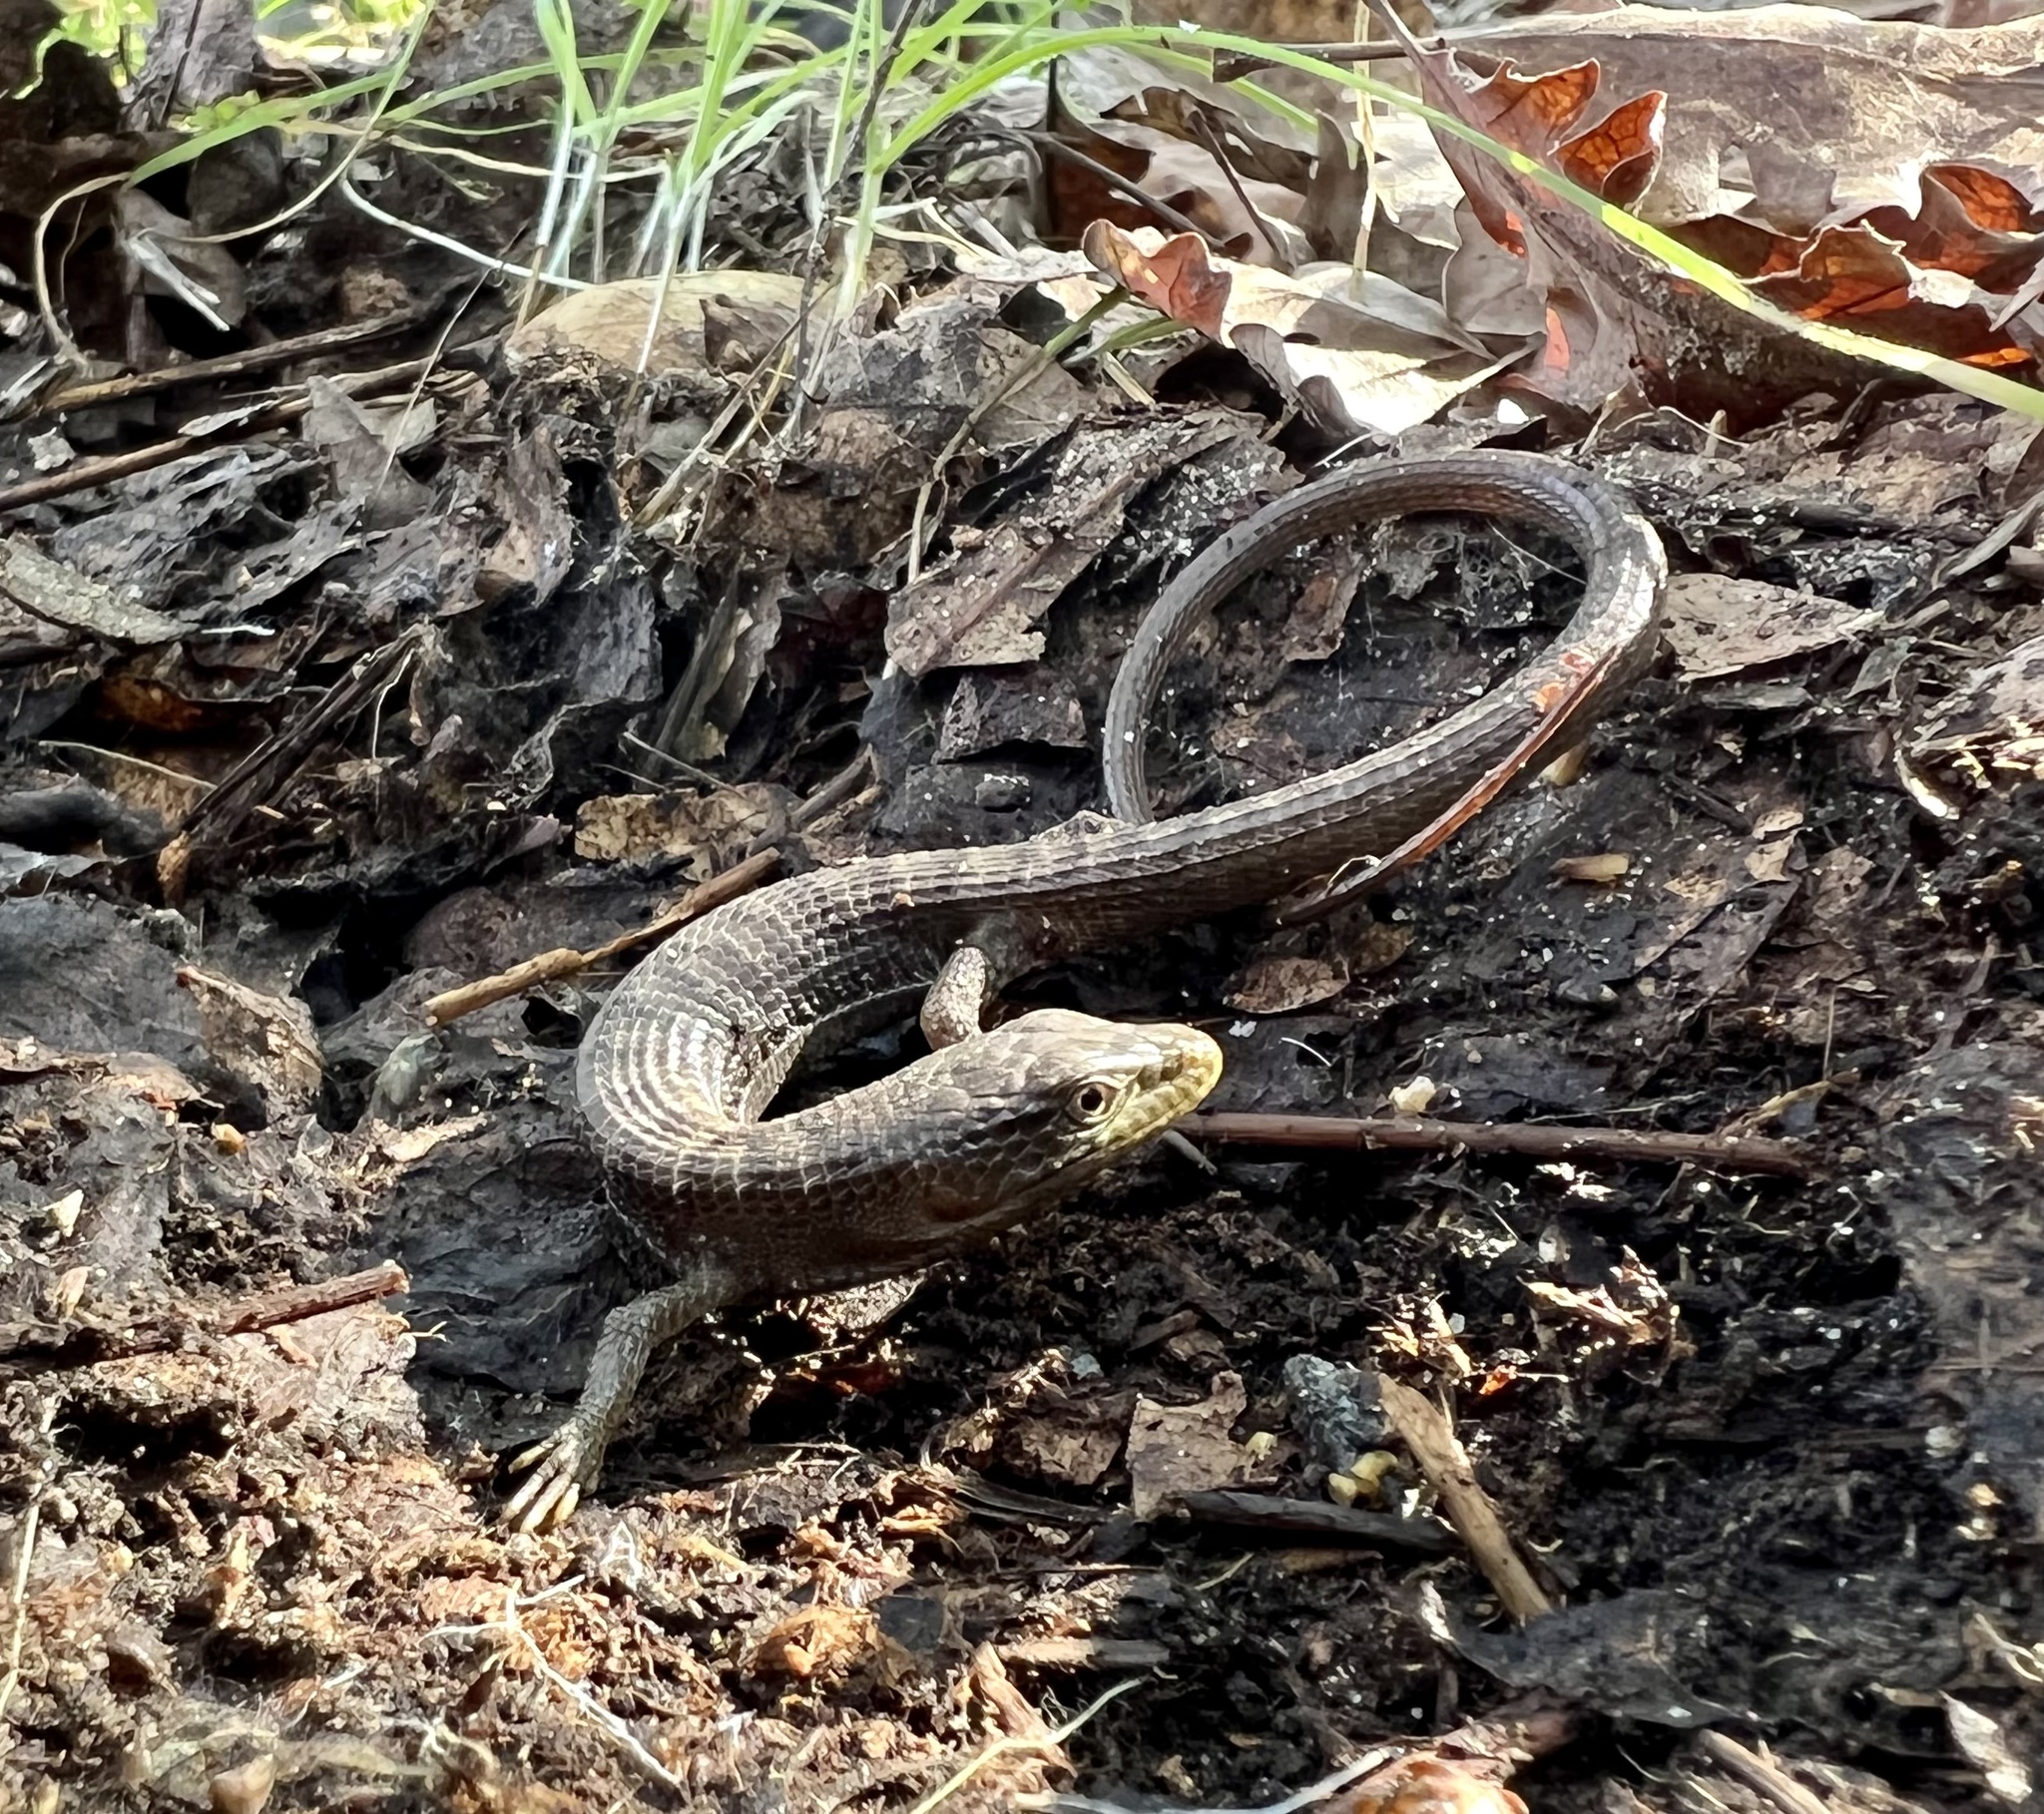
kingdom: Animalia
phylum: Chordata
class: Squamata
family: Anguidae
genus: Elgaria
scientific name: Elgaria multicarinata
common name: Southern alligator lizard
